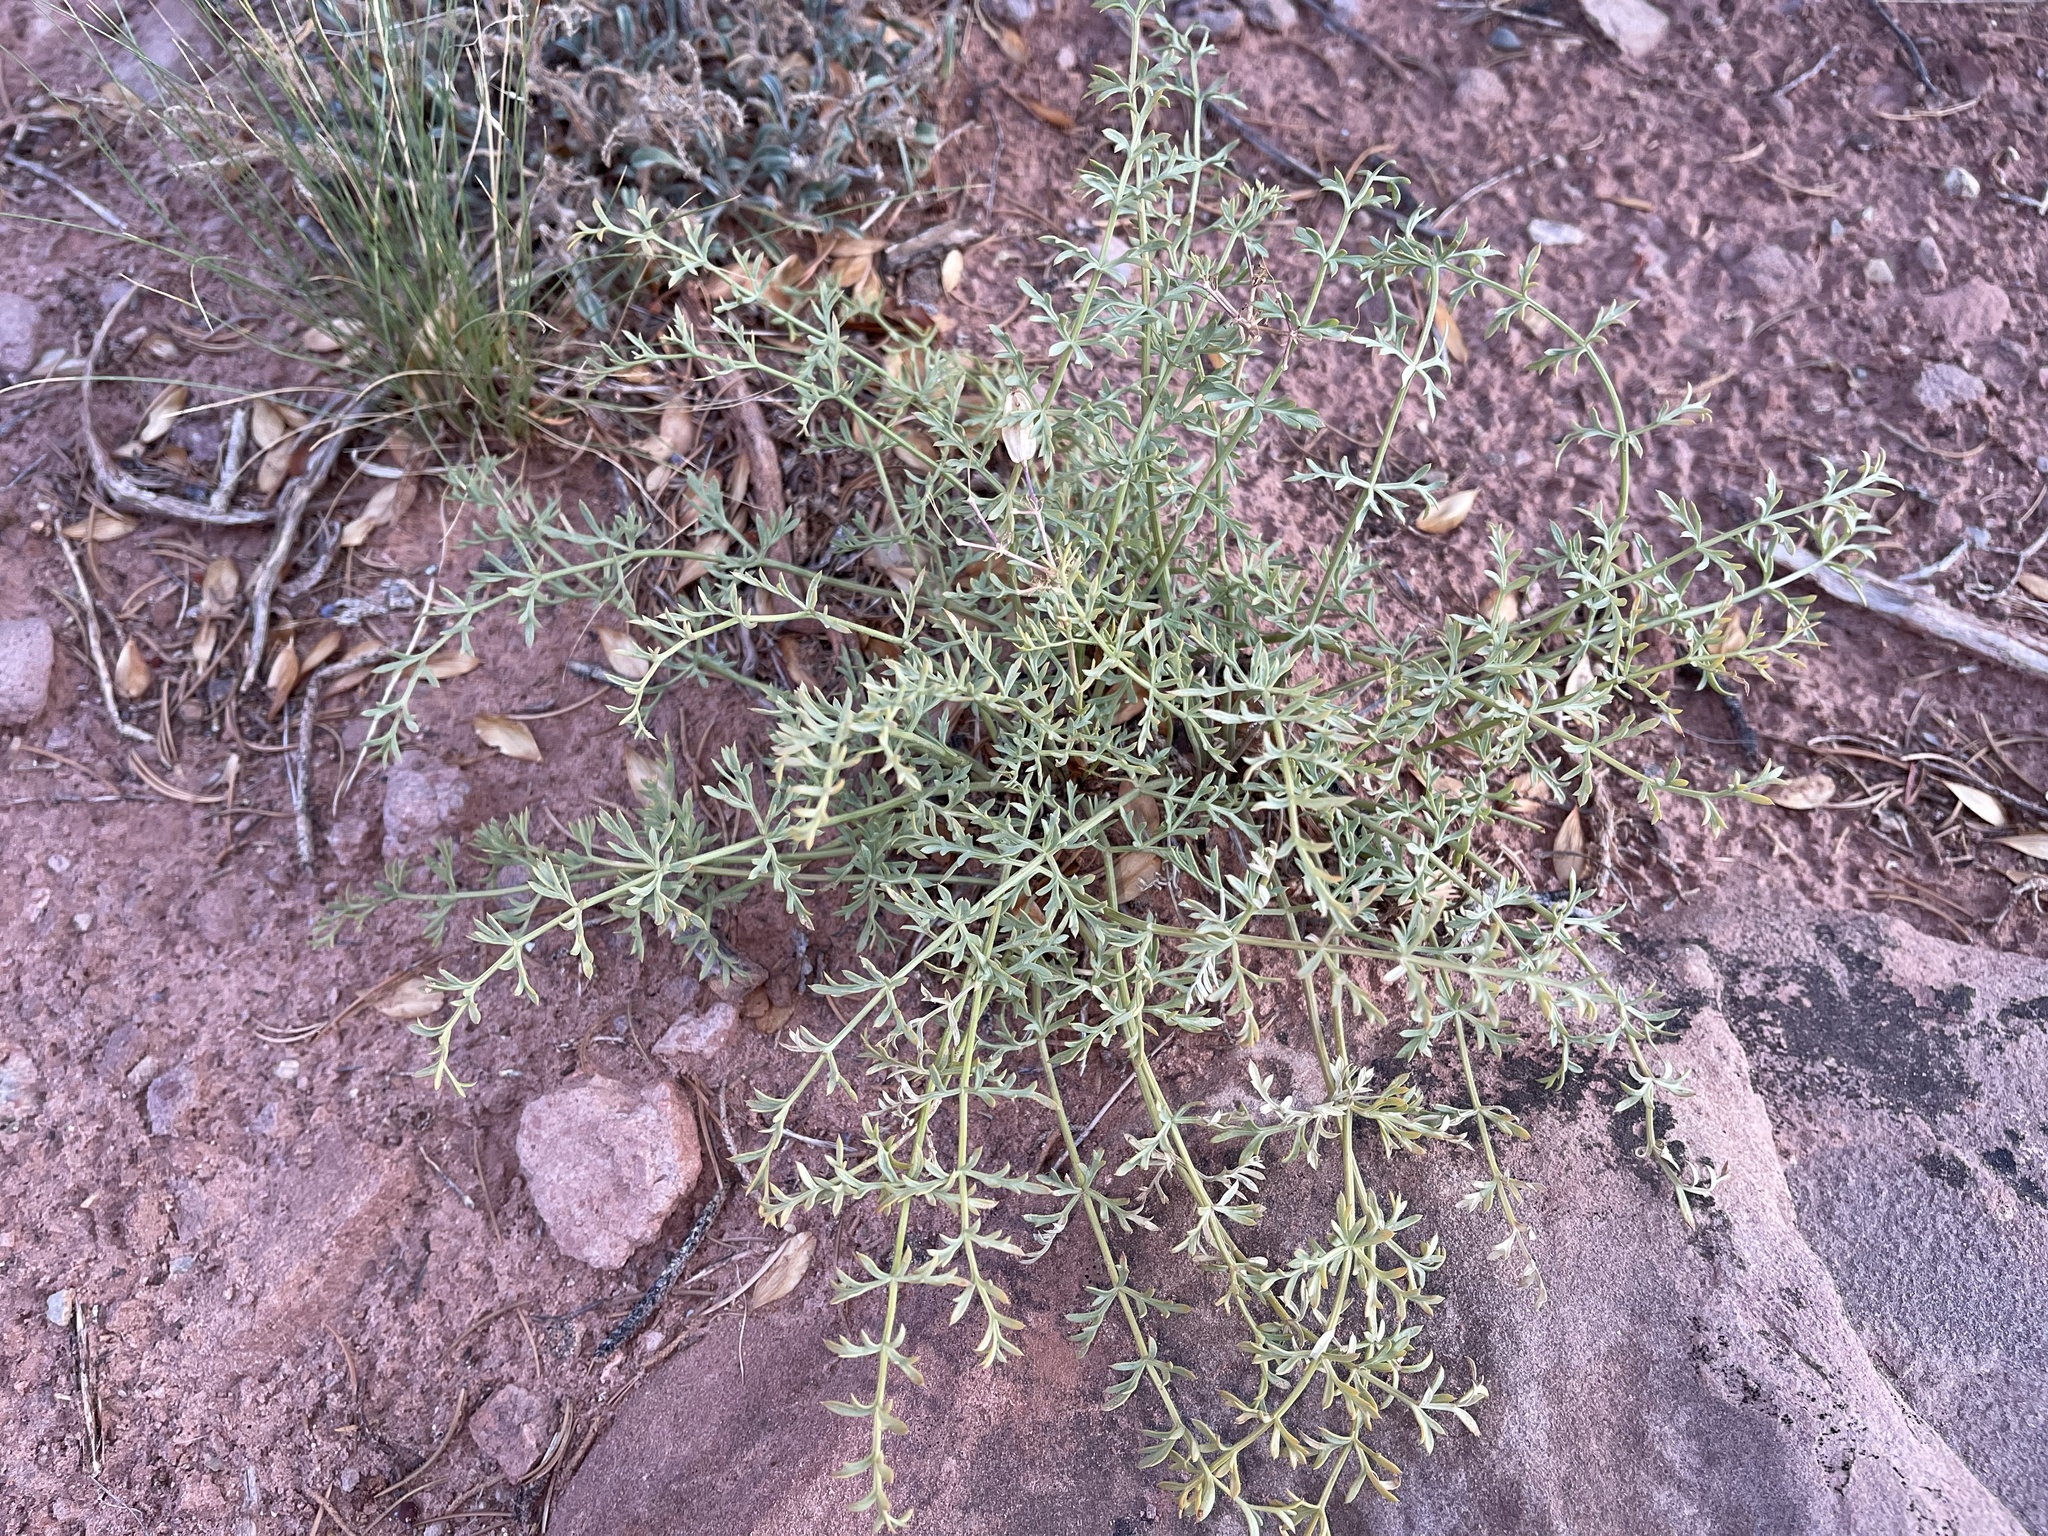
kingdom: Plantae
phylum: Tracheophyta
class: Magnoliopsida
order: Apiales
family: Apiaceae
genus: Lomatium
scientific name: Lomatium parryi
